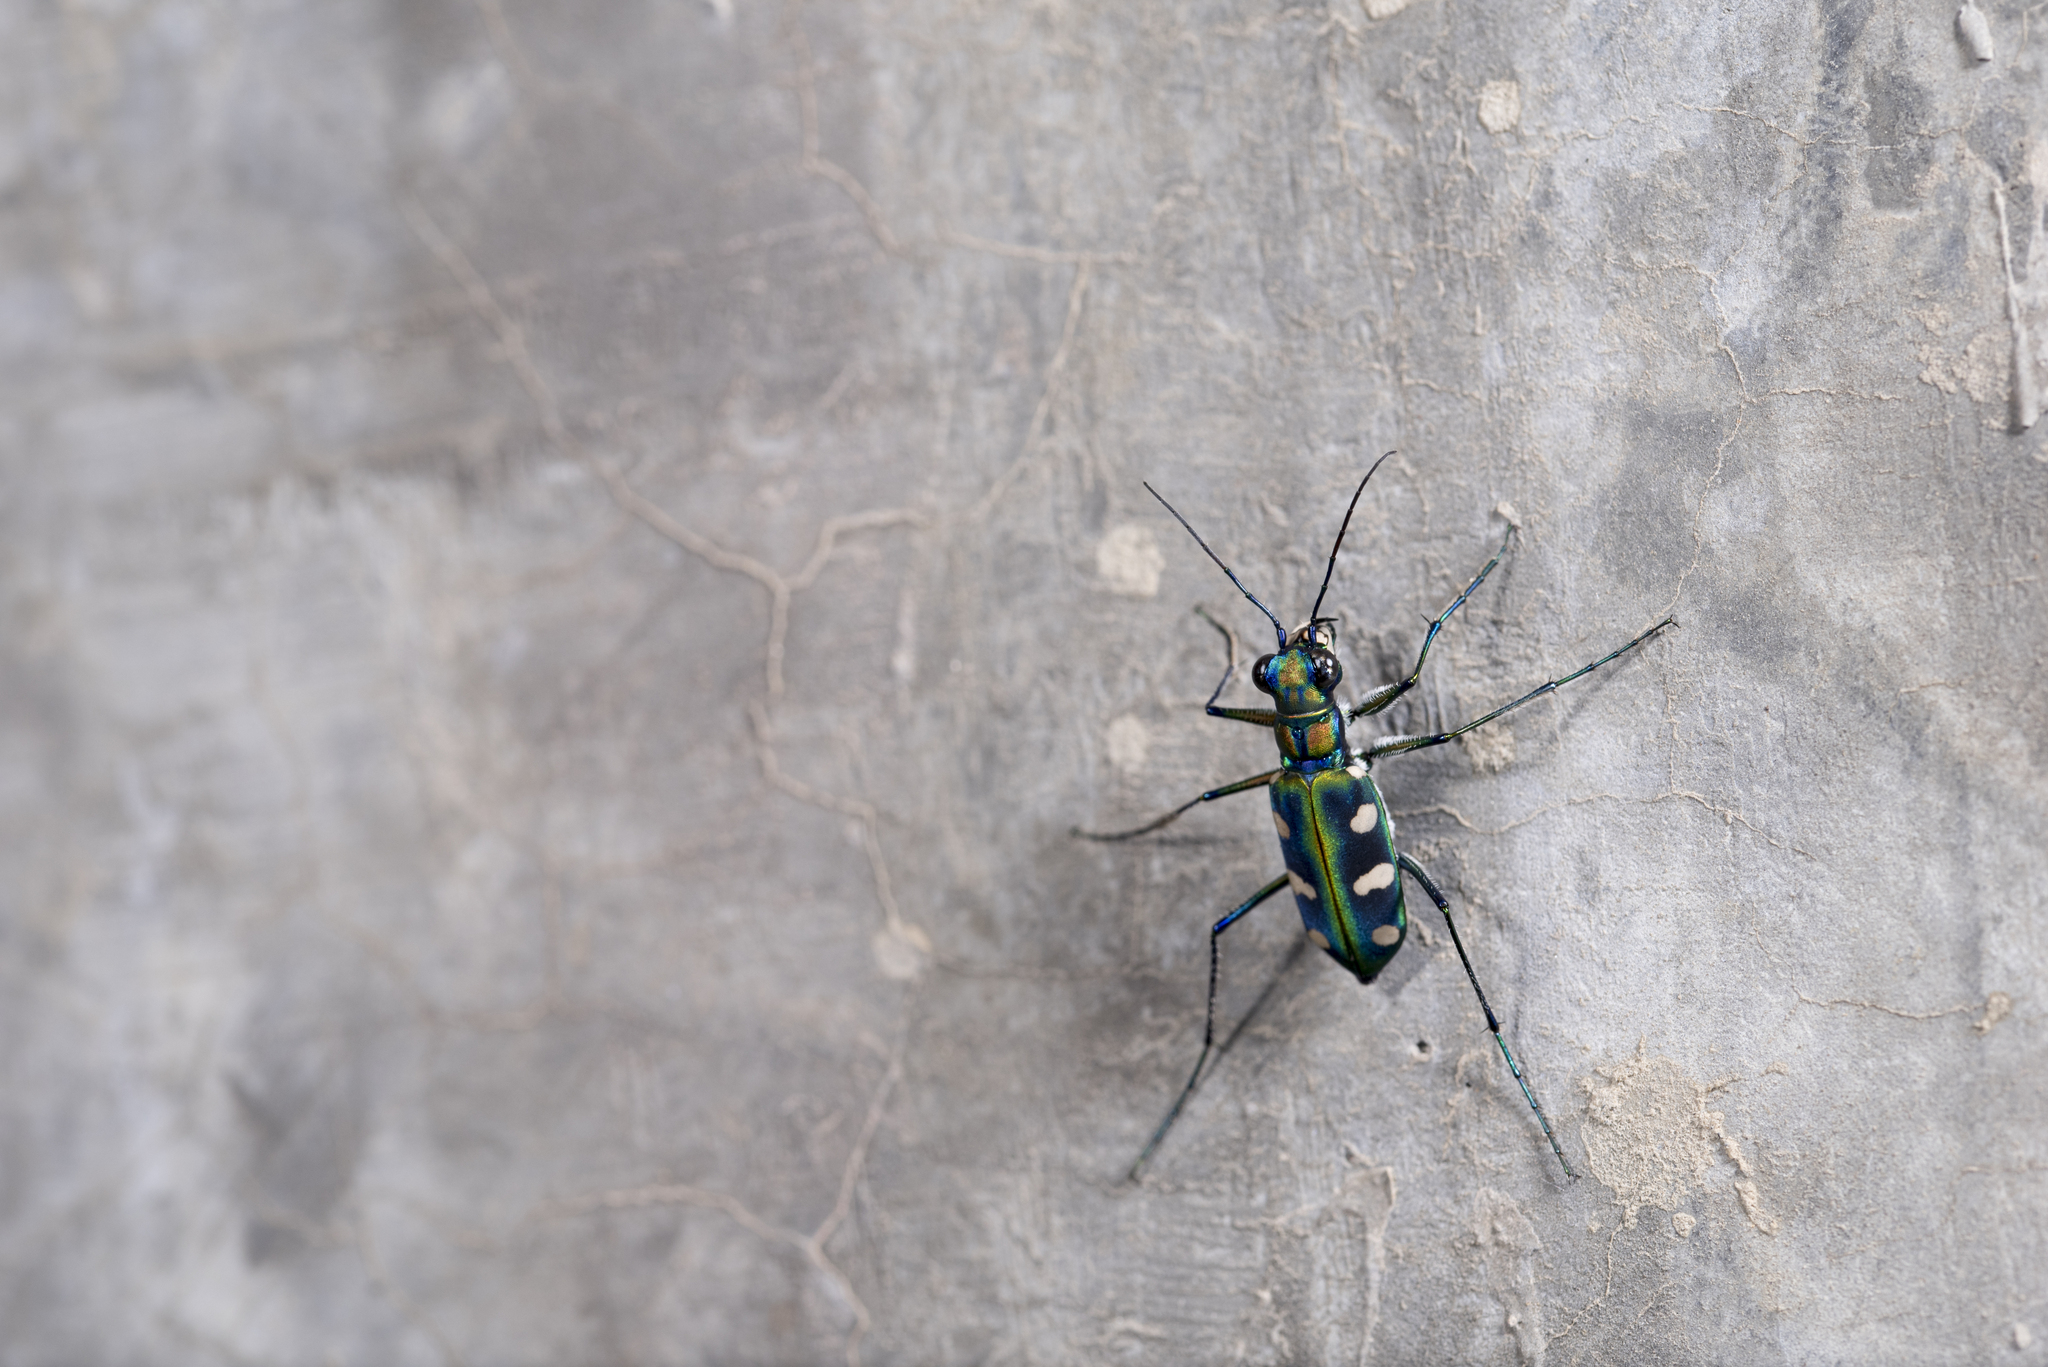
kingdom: Animalia
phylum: Arthropoda
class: Insecta
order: Coleoptera
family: Carabidae
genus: Cicindela
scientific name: Cicindela batesi
